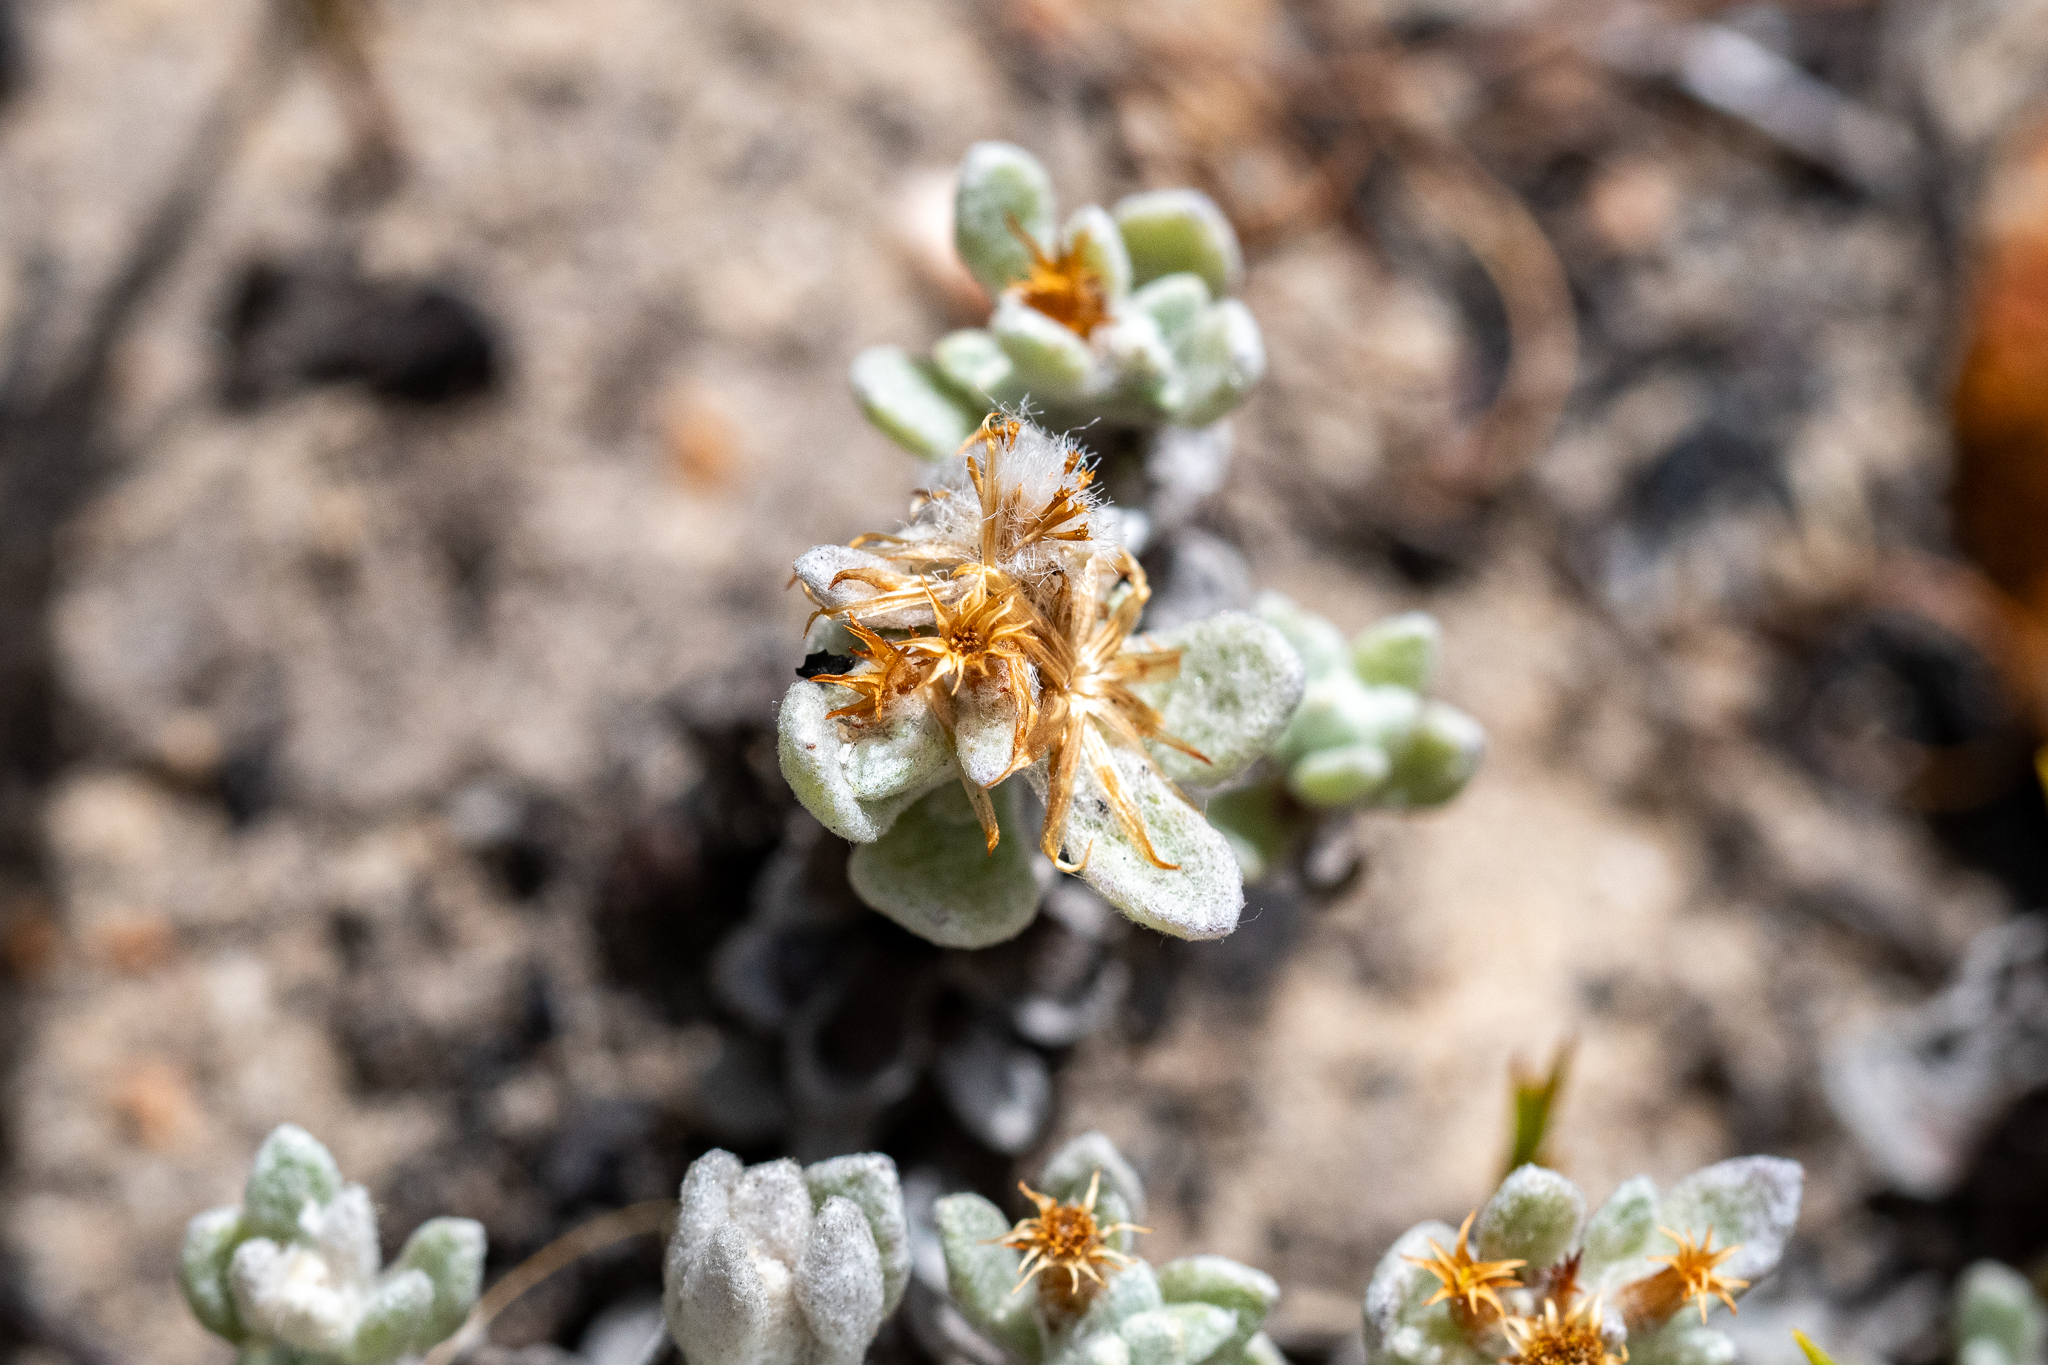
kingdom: Plantae
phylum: Tracheophyta
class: Magnoliopsida
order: Asterales
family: Asteraceae
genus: Helichrysum
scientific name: Helichrysum tinctum
